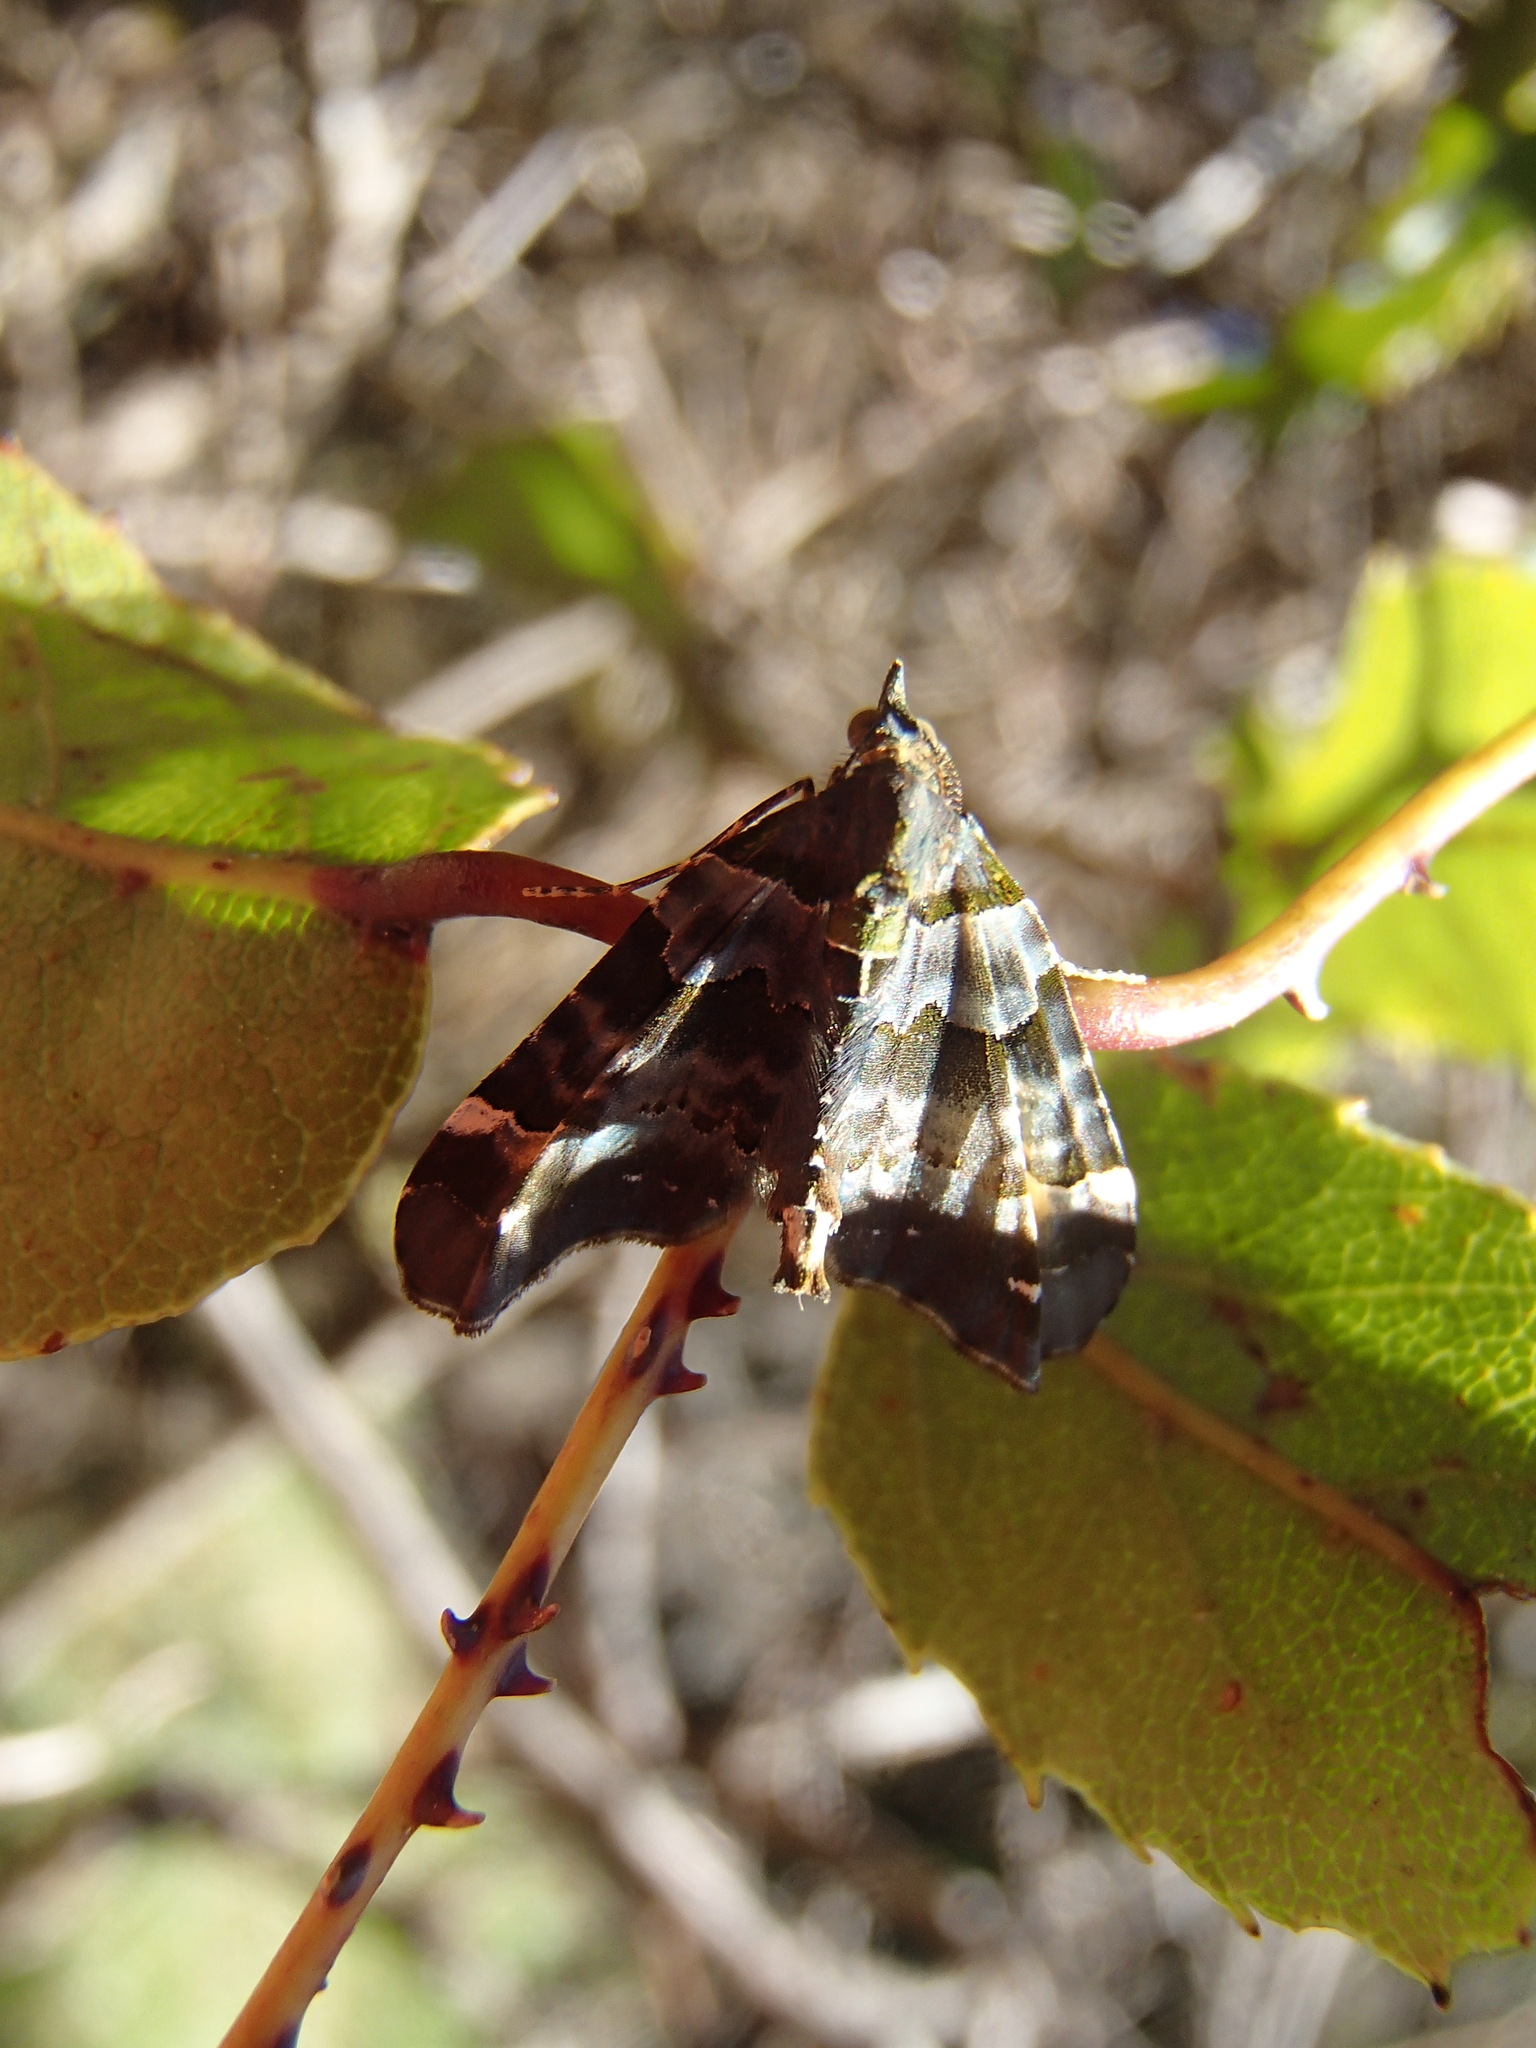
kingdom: Animalia
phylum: Arthropoda
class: Insecta
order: Lepidoptera
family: Geometridae
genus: Elvia
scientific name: Elvia glaucata
